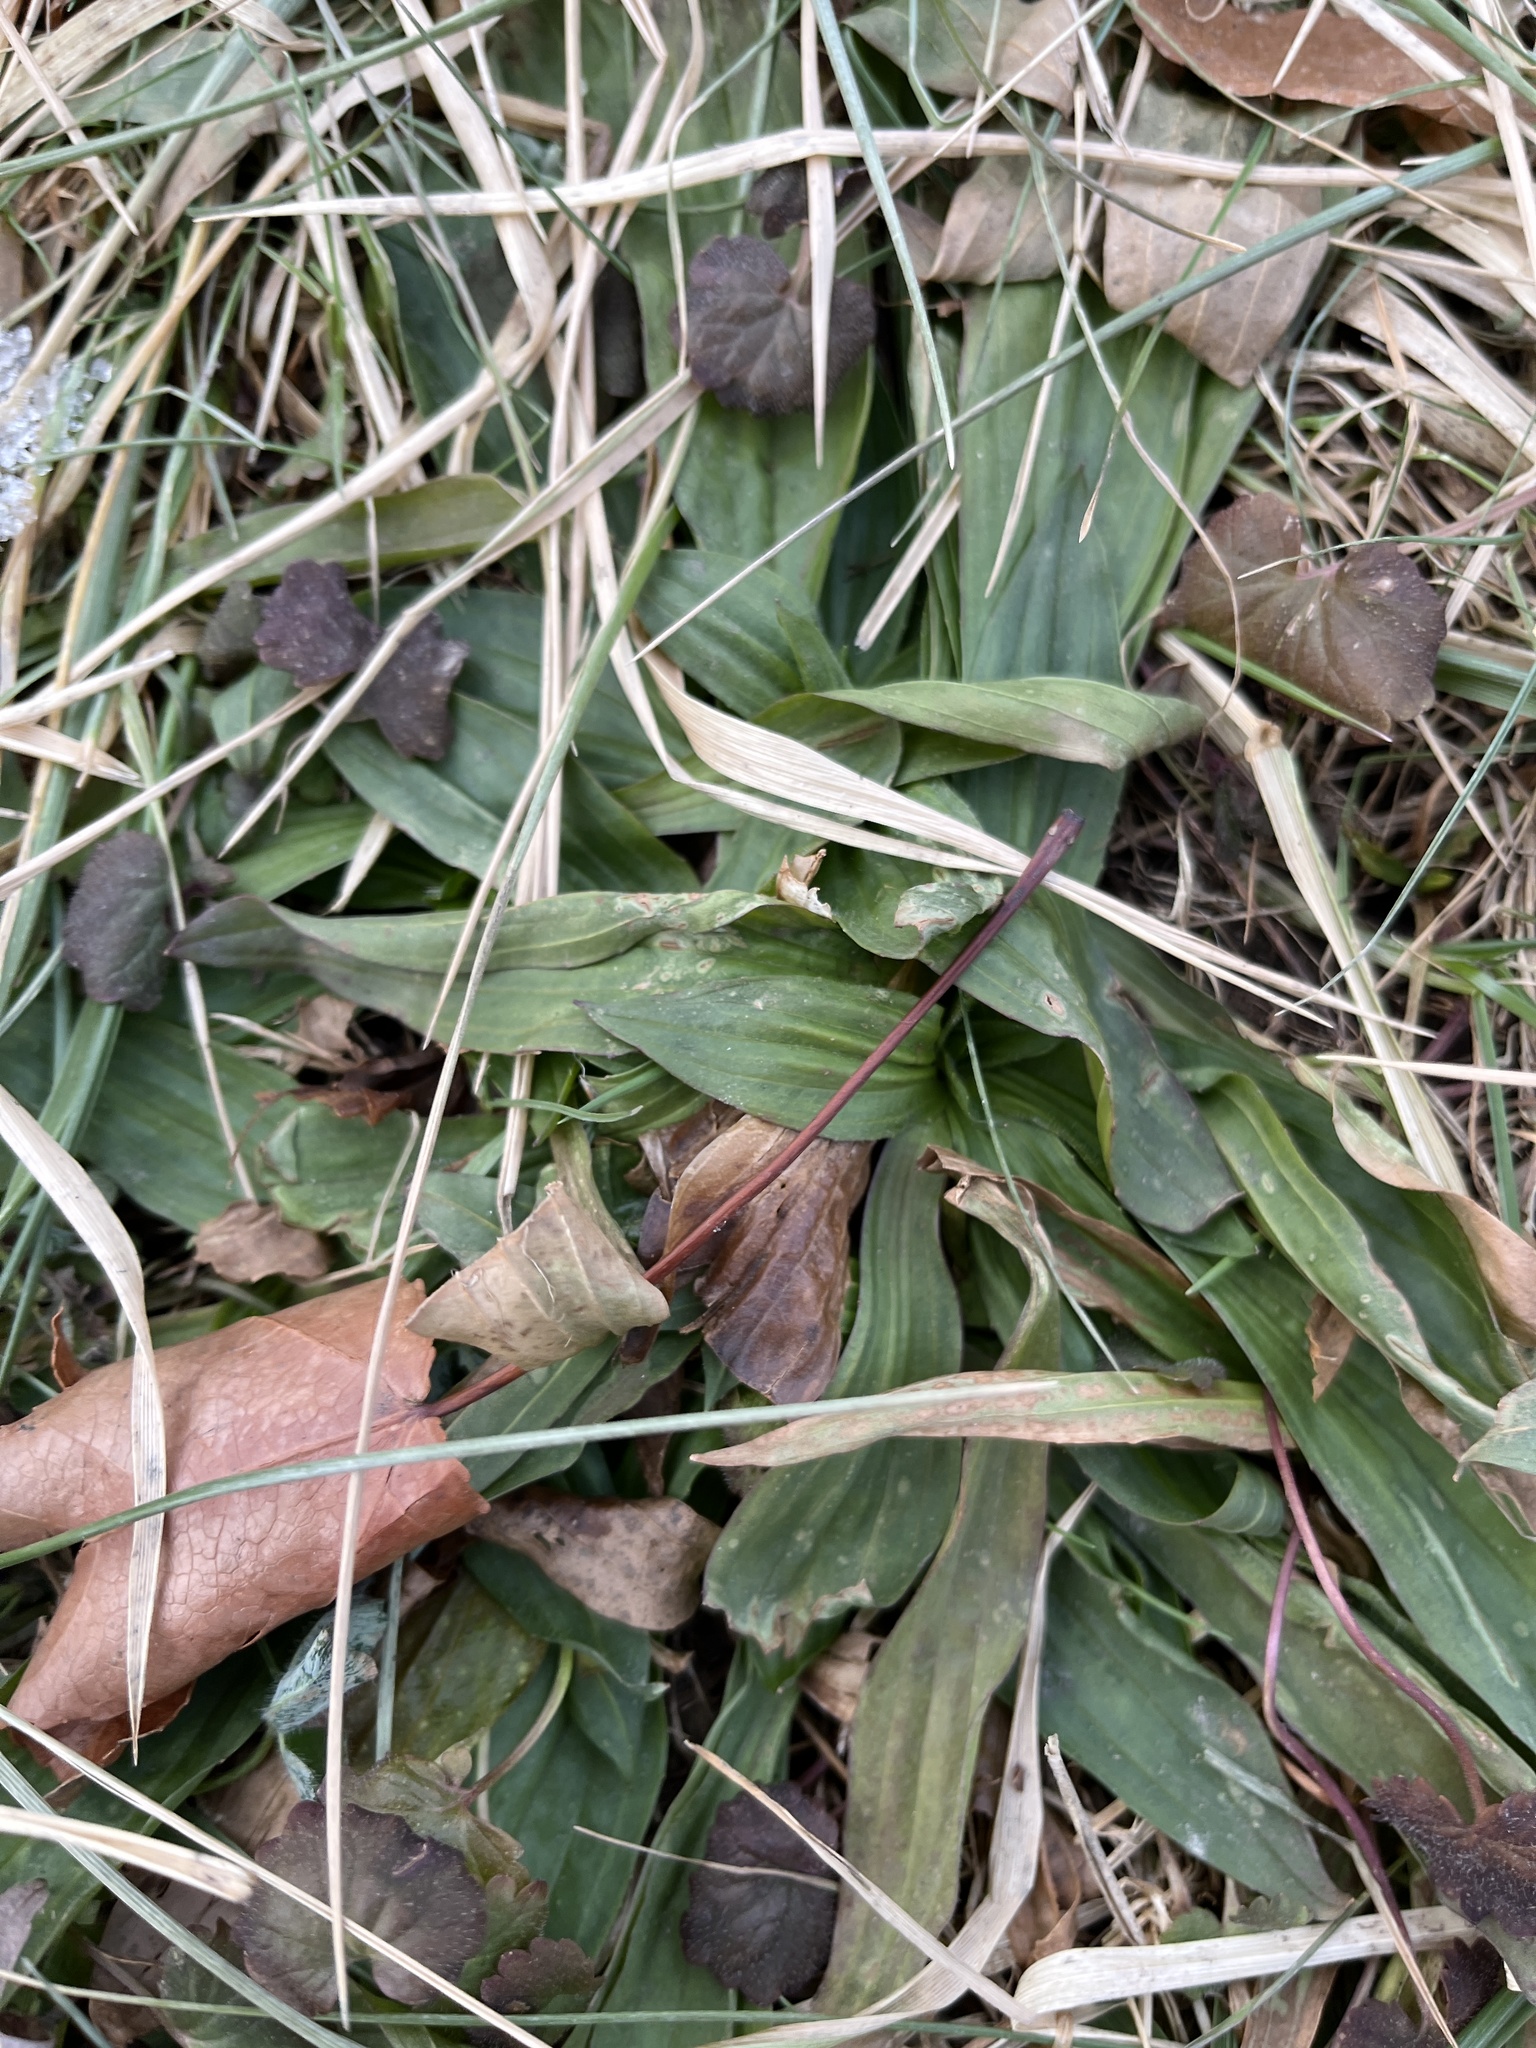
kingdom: Plantae
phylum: Tracheophyta
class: Magnoliopsida
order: Lamiales
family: Plantaginaceae
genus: Plantago
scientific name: Plantago lanceolata
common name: Ribwort plantain
